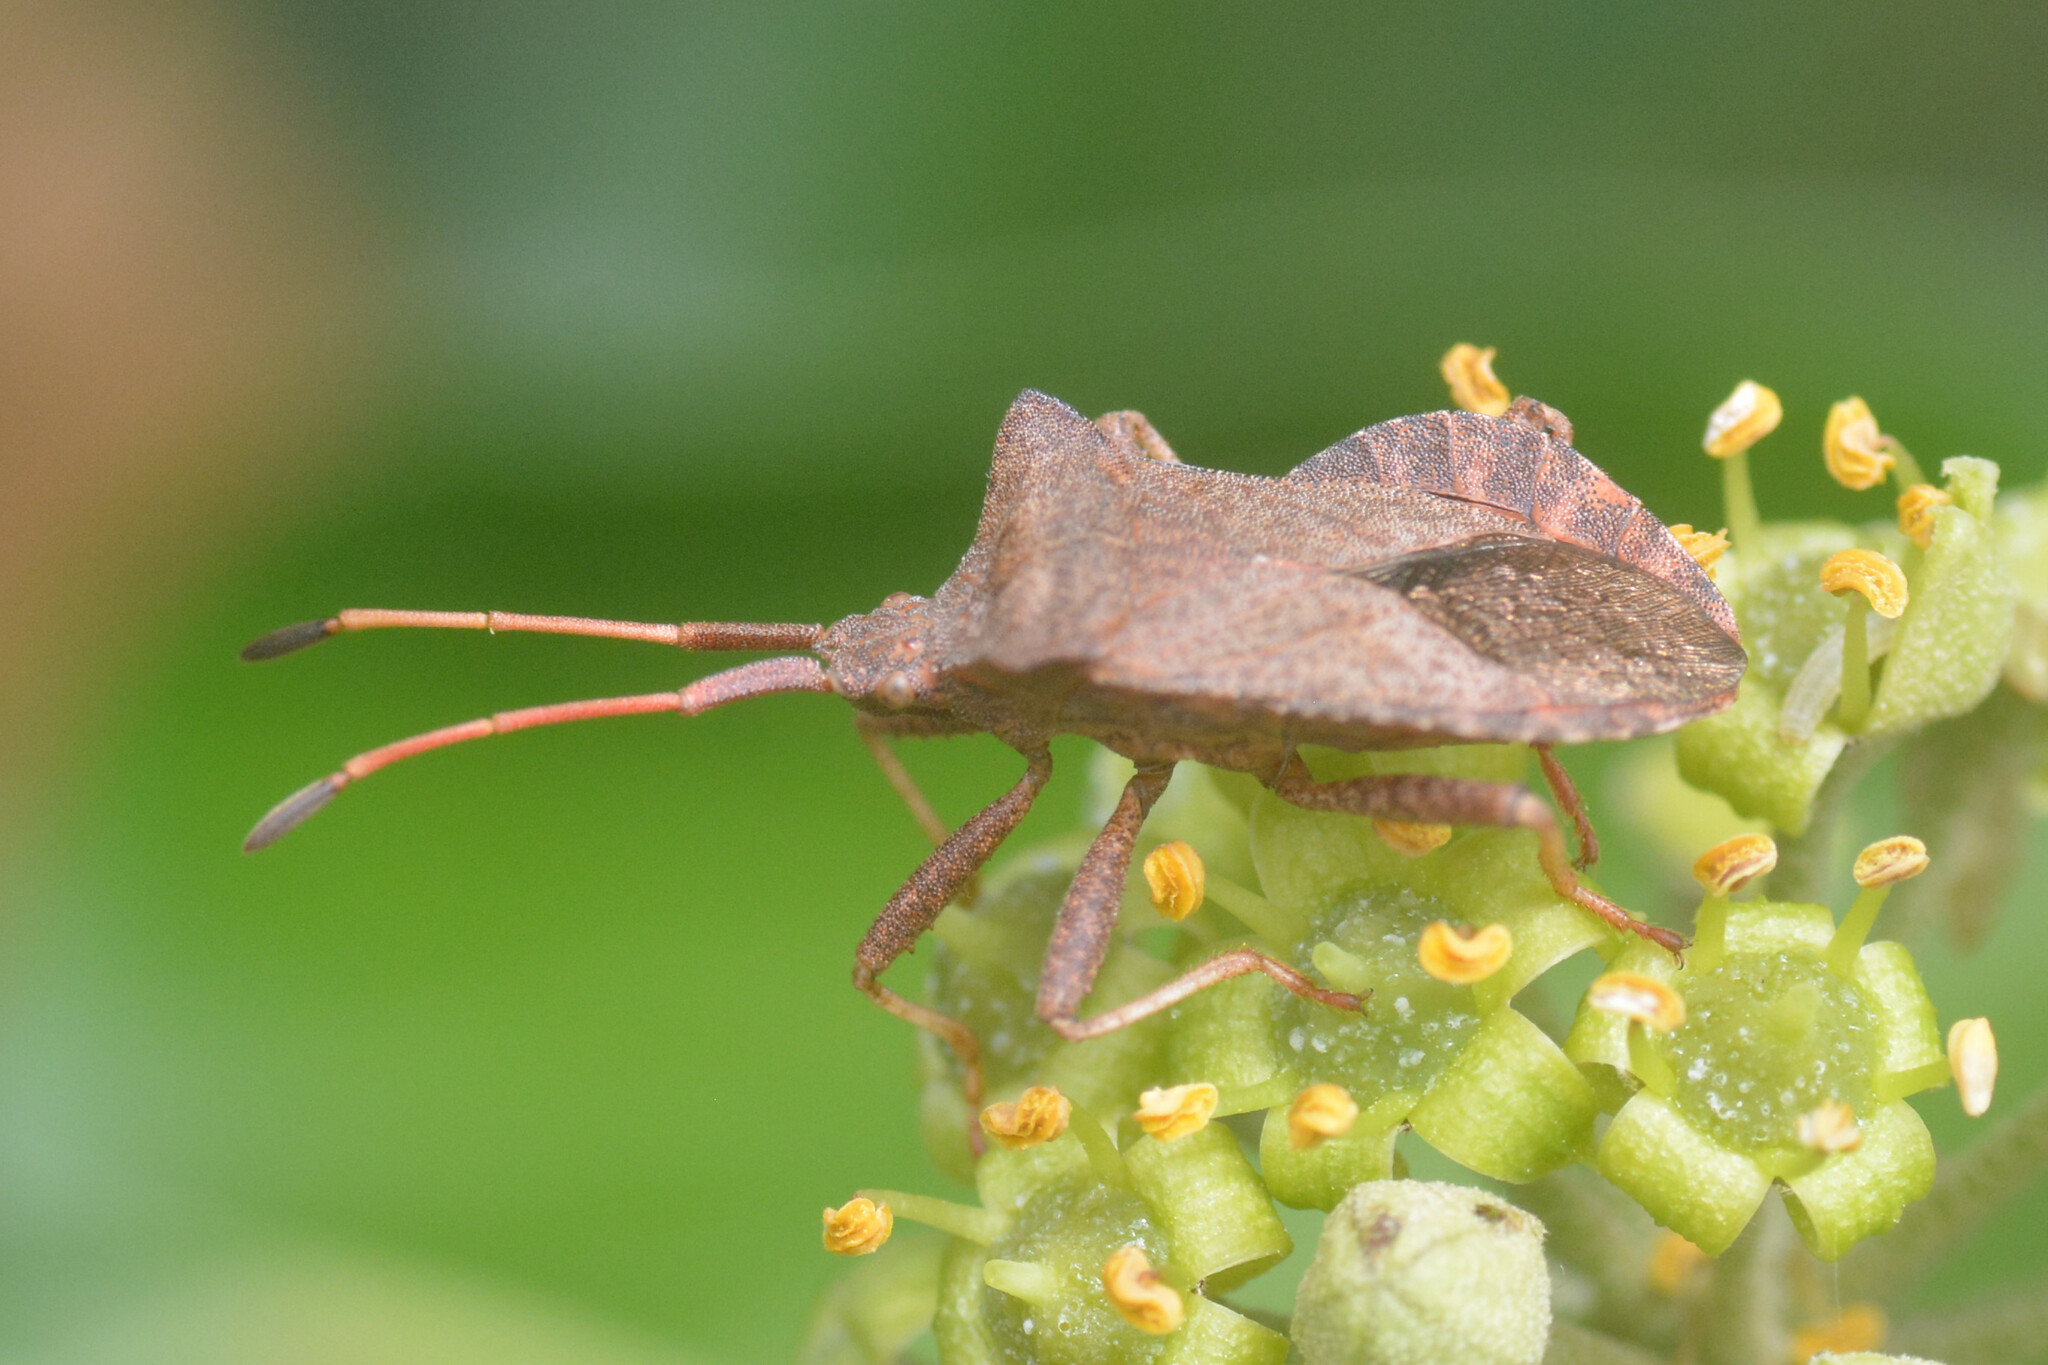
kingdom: Animalia
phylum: Arthropoda
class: Insecta
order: Hemiptera
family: Coreidae
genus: Coreus
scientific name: Coreus marginatus
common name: Dock bug
